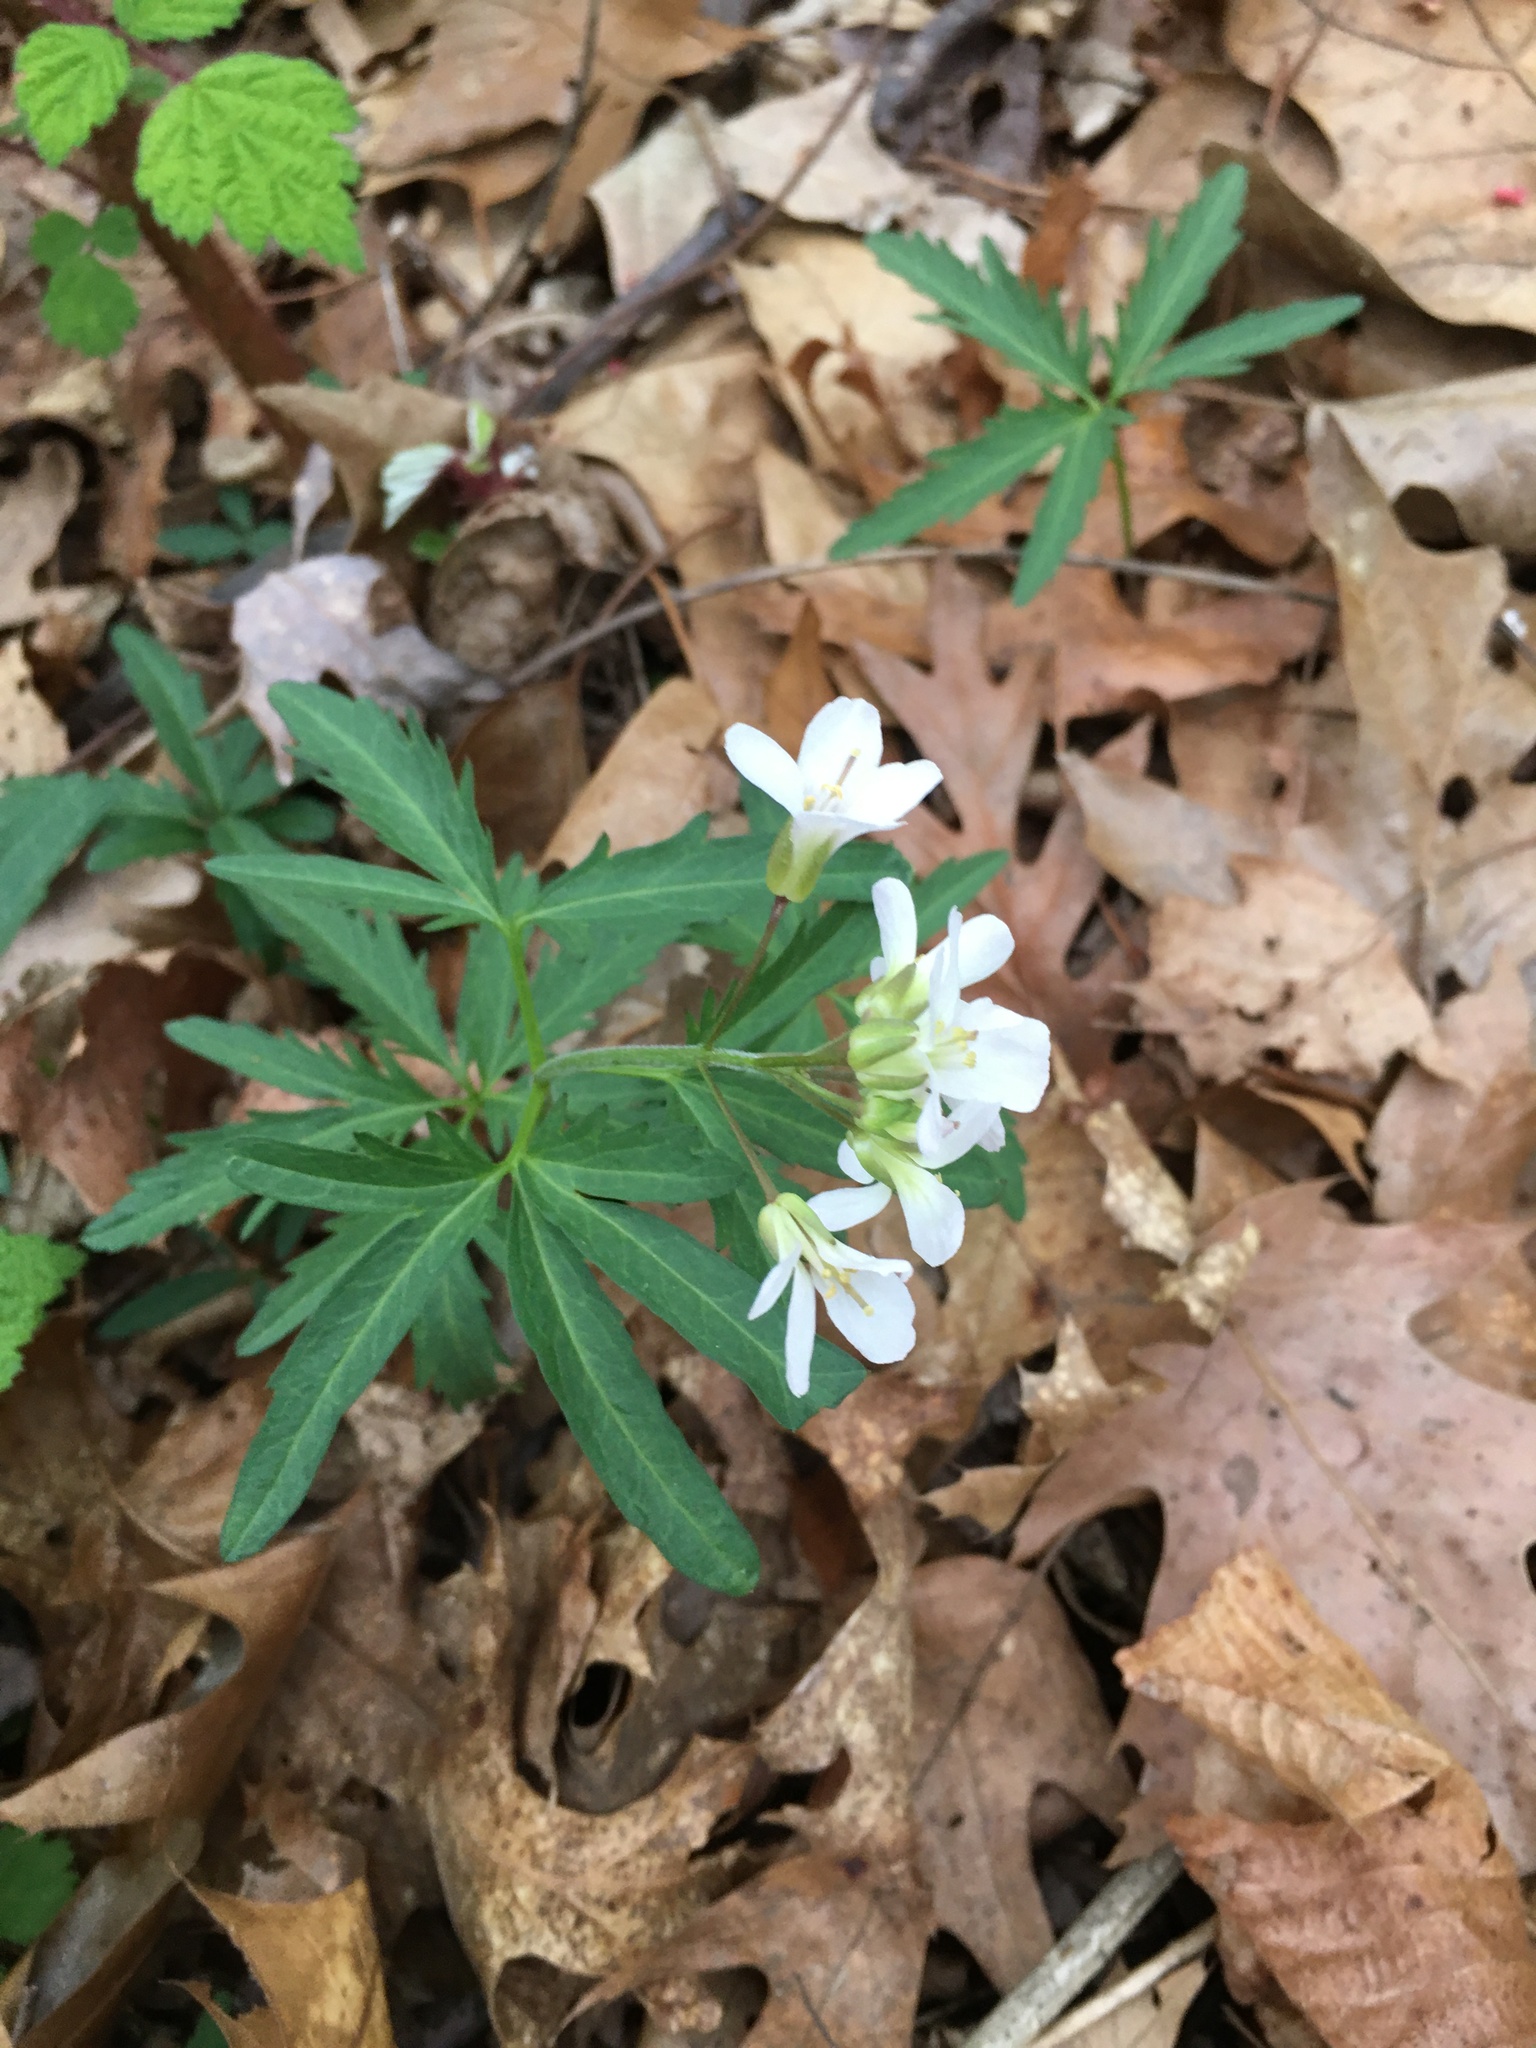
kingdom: Plantae
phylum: Tracheophyta
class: Magnoliopsida
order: Brassicales
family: Brassicaceae
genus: Cardamine
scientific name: Cardamine concatenata
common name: Cut-leaf toothcup
